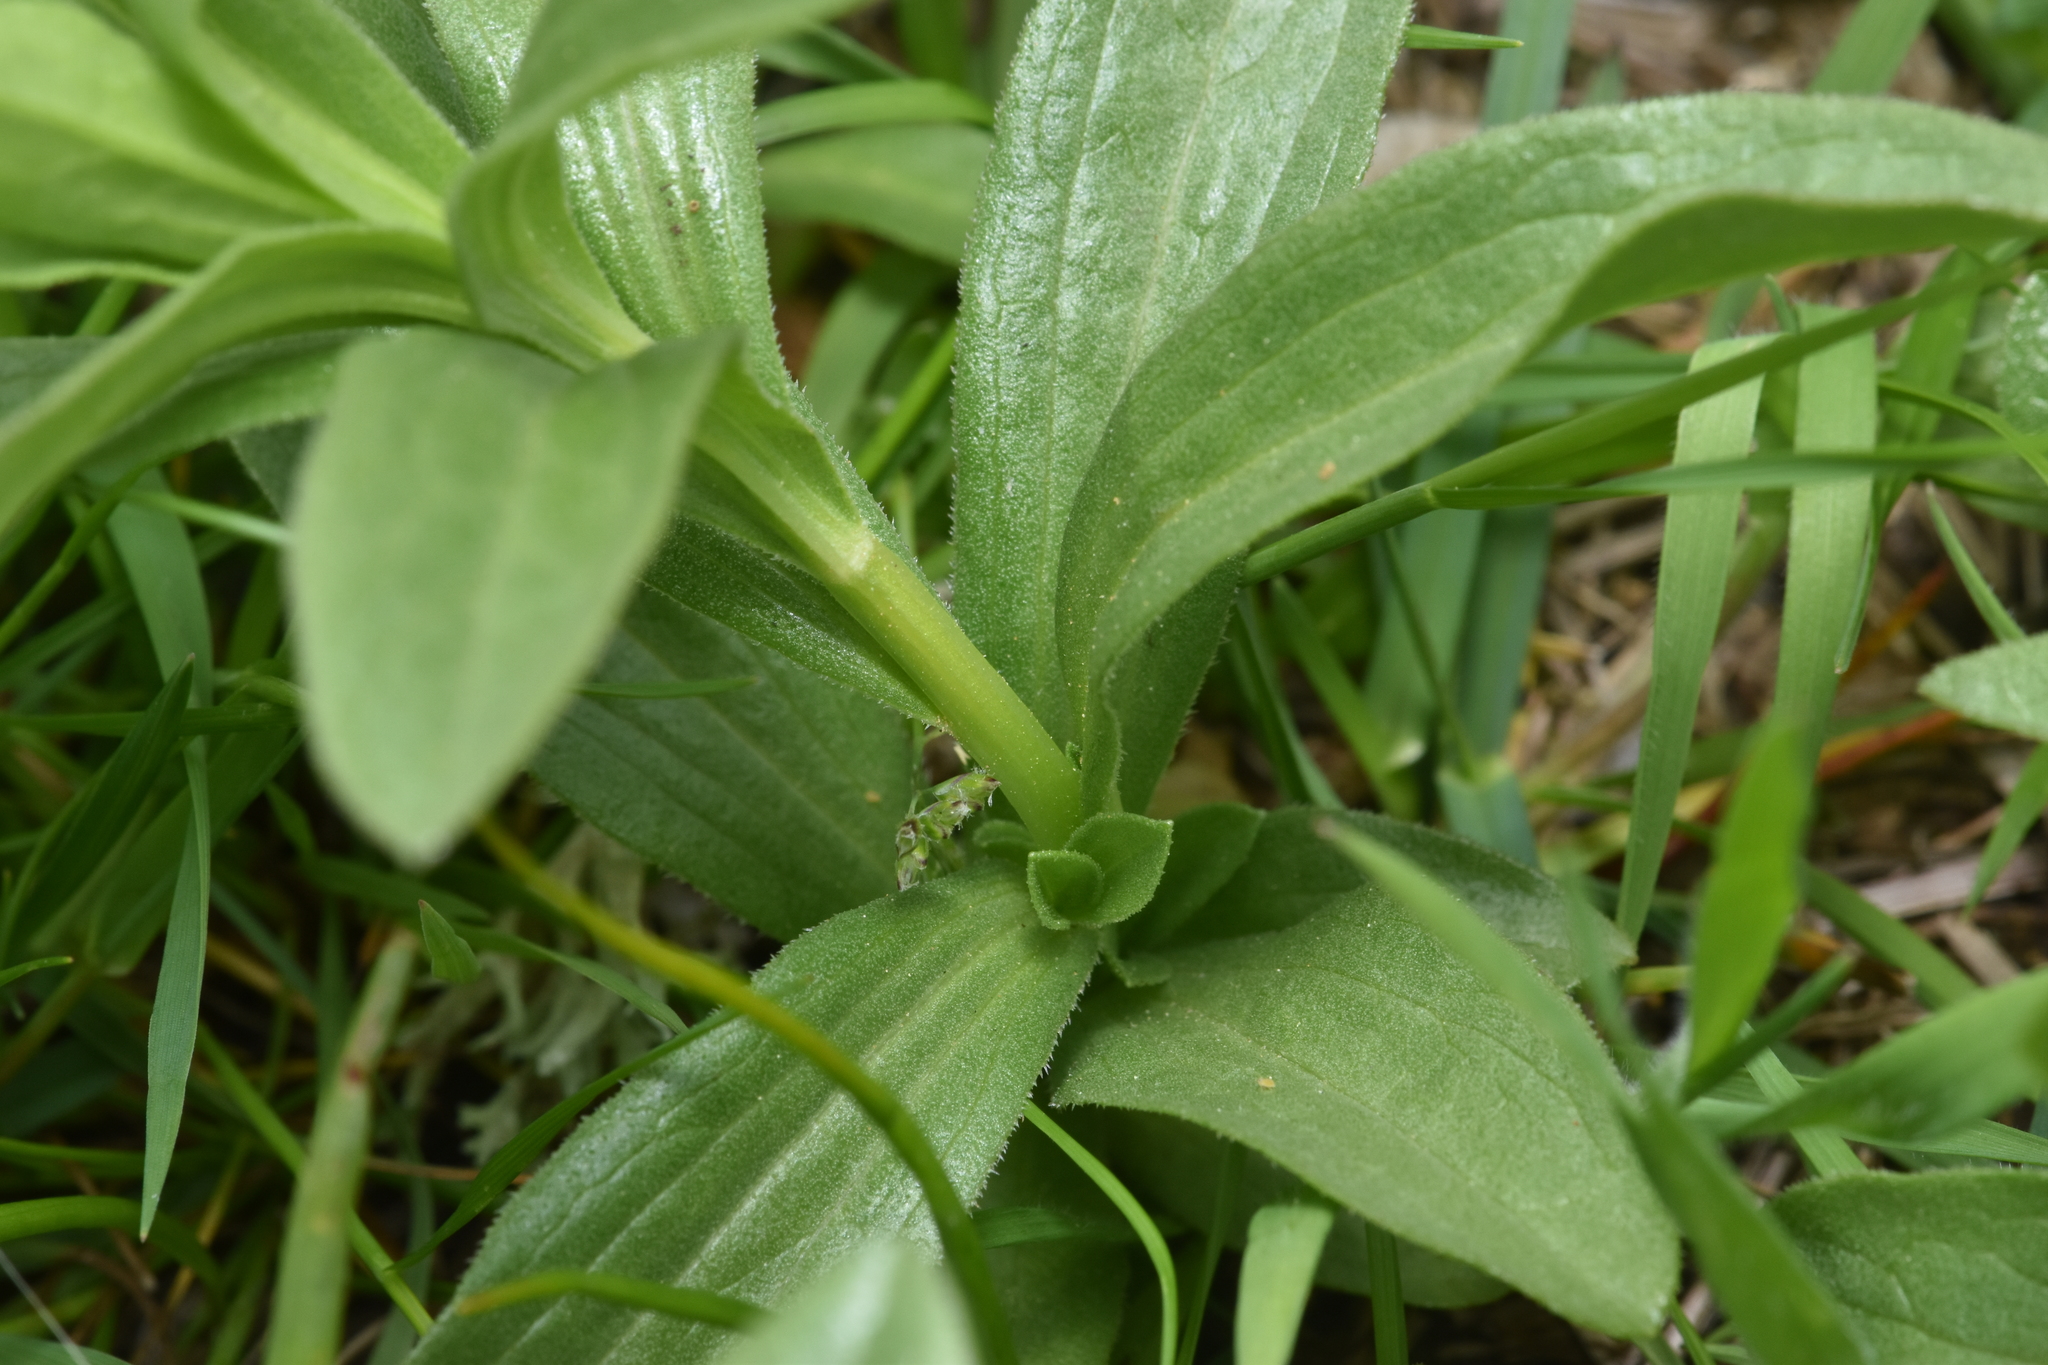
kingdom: Plantae
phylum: Tracheophyta
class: Magnoliopsida
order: Asterales
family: Asteraceae
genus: Sericocarpus
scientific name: Sericocarpus rigidus
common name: Columbia white-top aster
